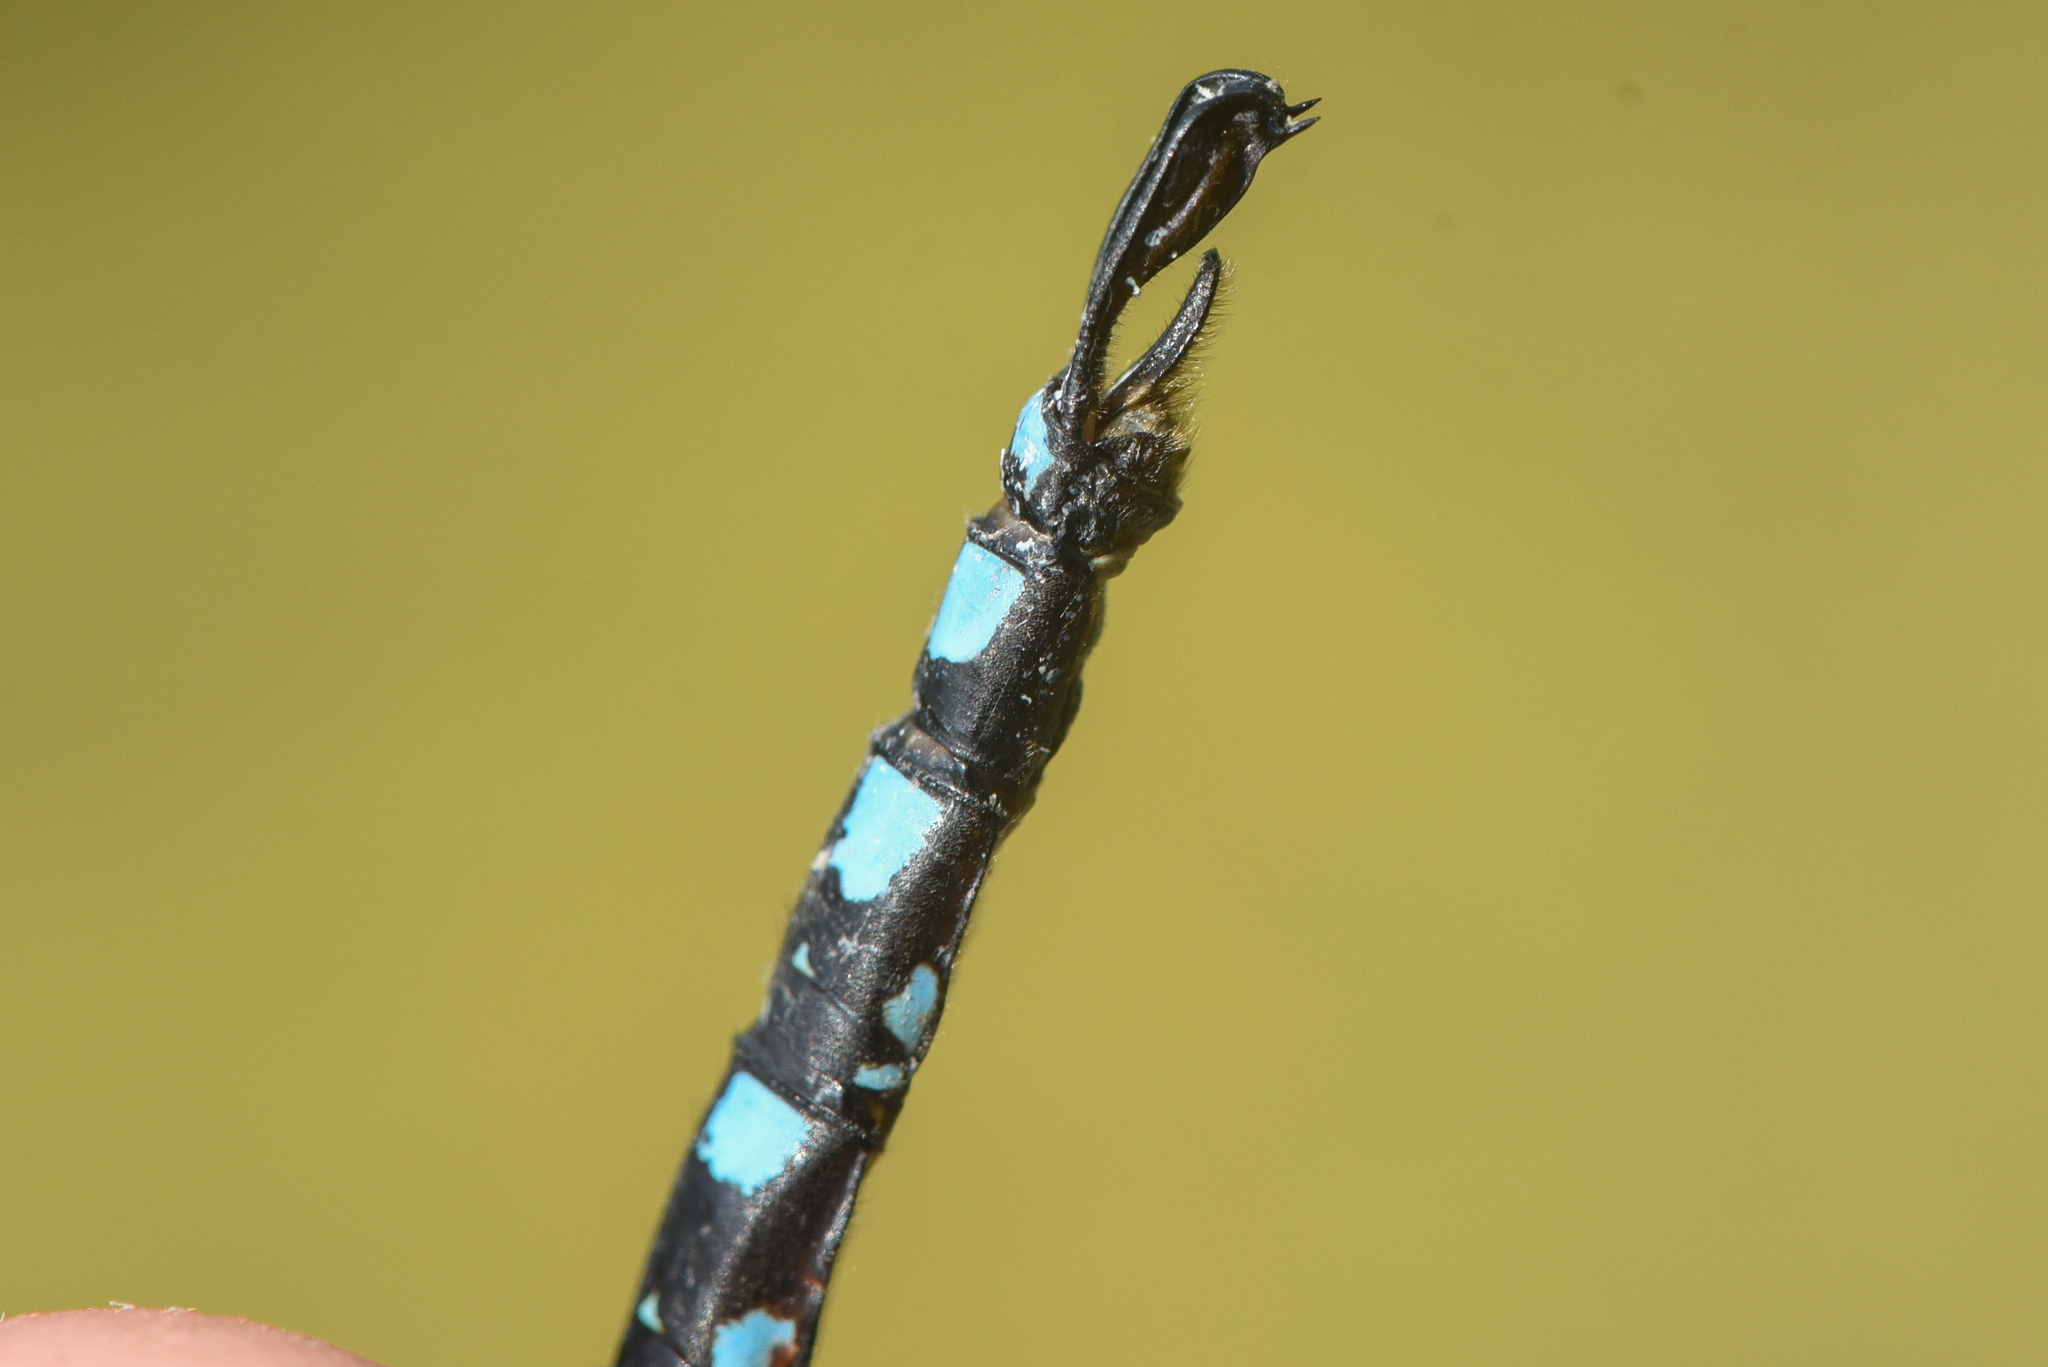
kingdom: Animalia
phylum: Arthropoda
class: Insecta
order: Odonata
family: Aeshnidae
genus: Aeshna
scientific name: Aeshna palmata
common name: Paddle-tailed darner
